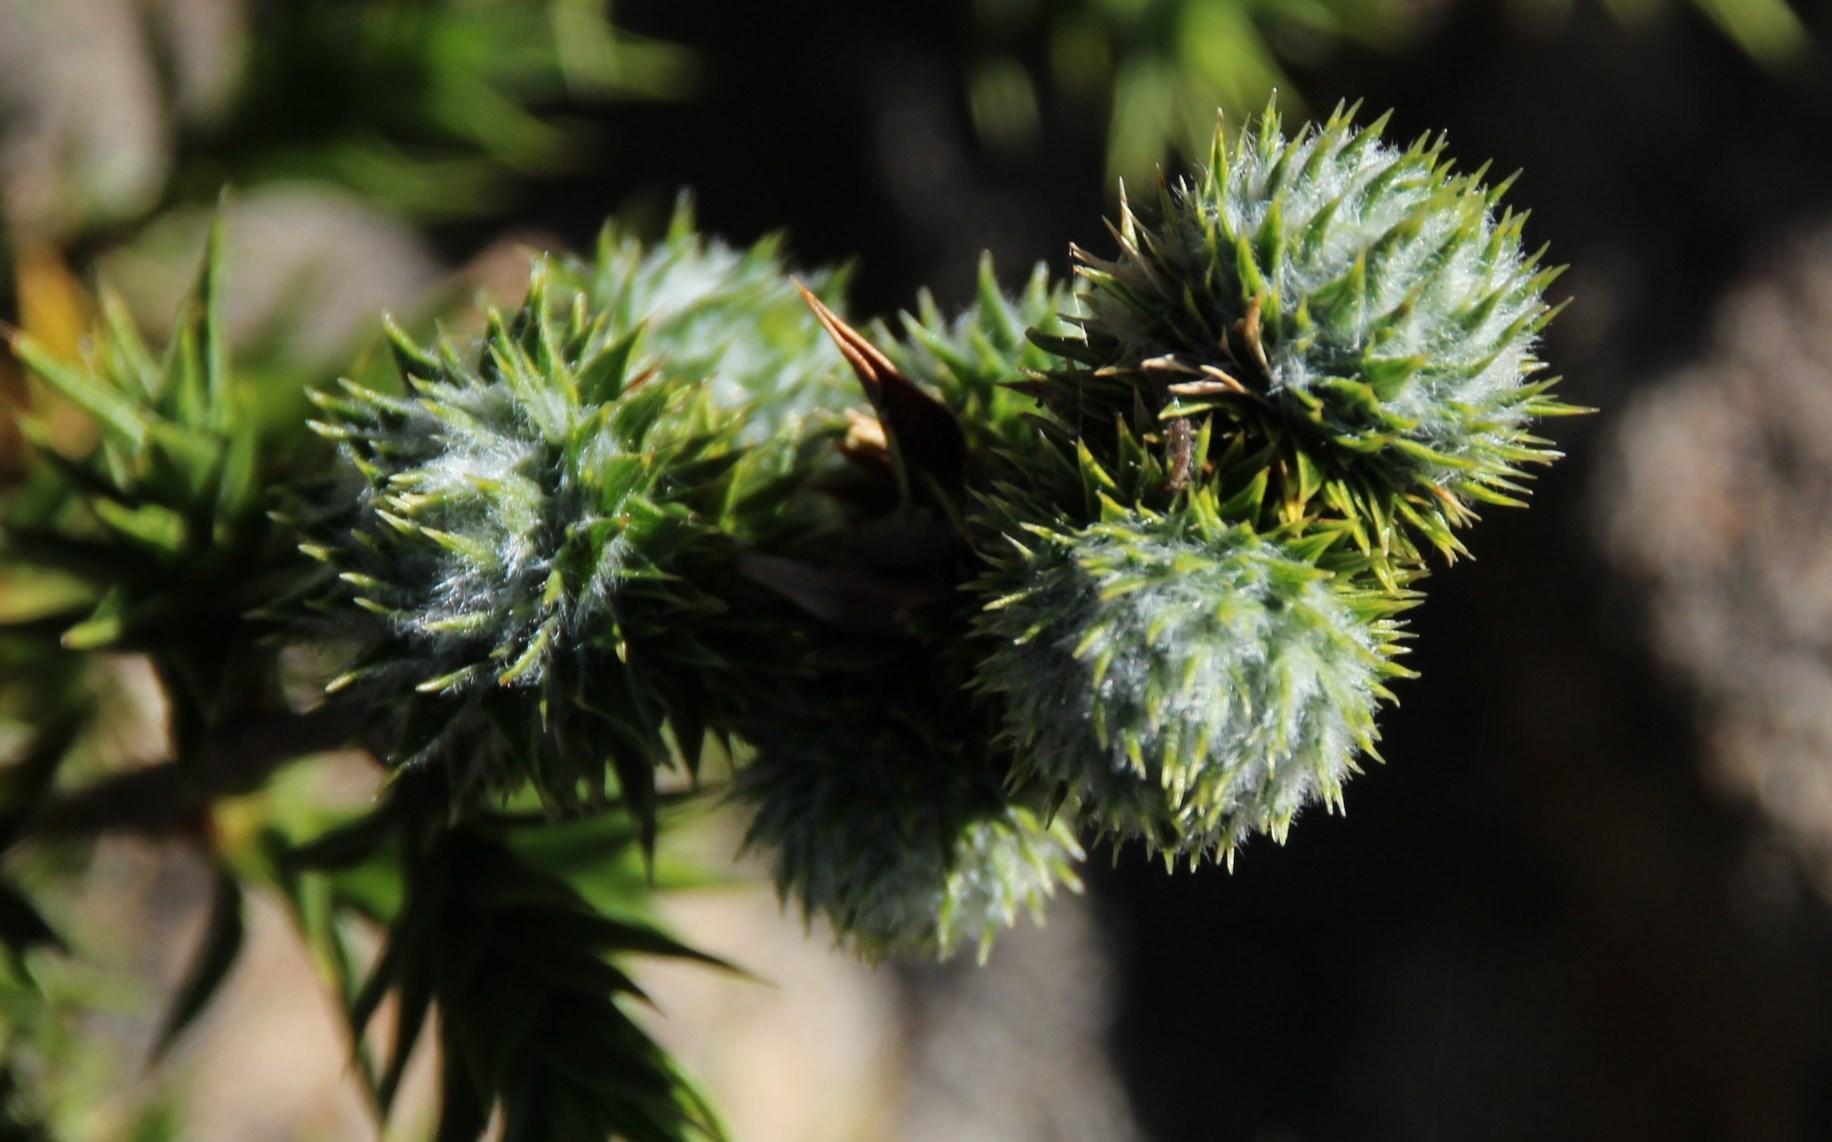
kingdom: Plantae
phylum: Tracheophyta
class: Magnoliopsida
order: Rosales
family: Rosaceae
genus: Cliffortia
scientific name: Cliffortia ruscifolia
